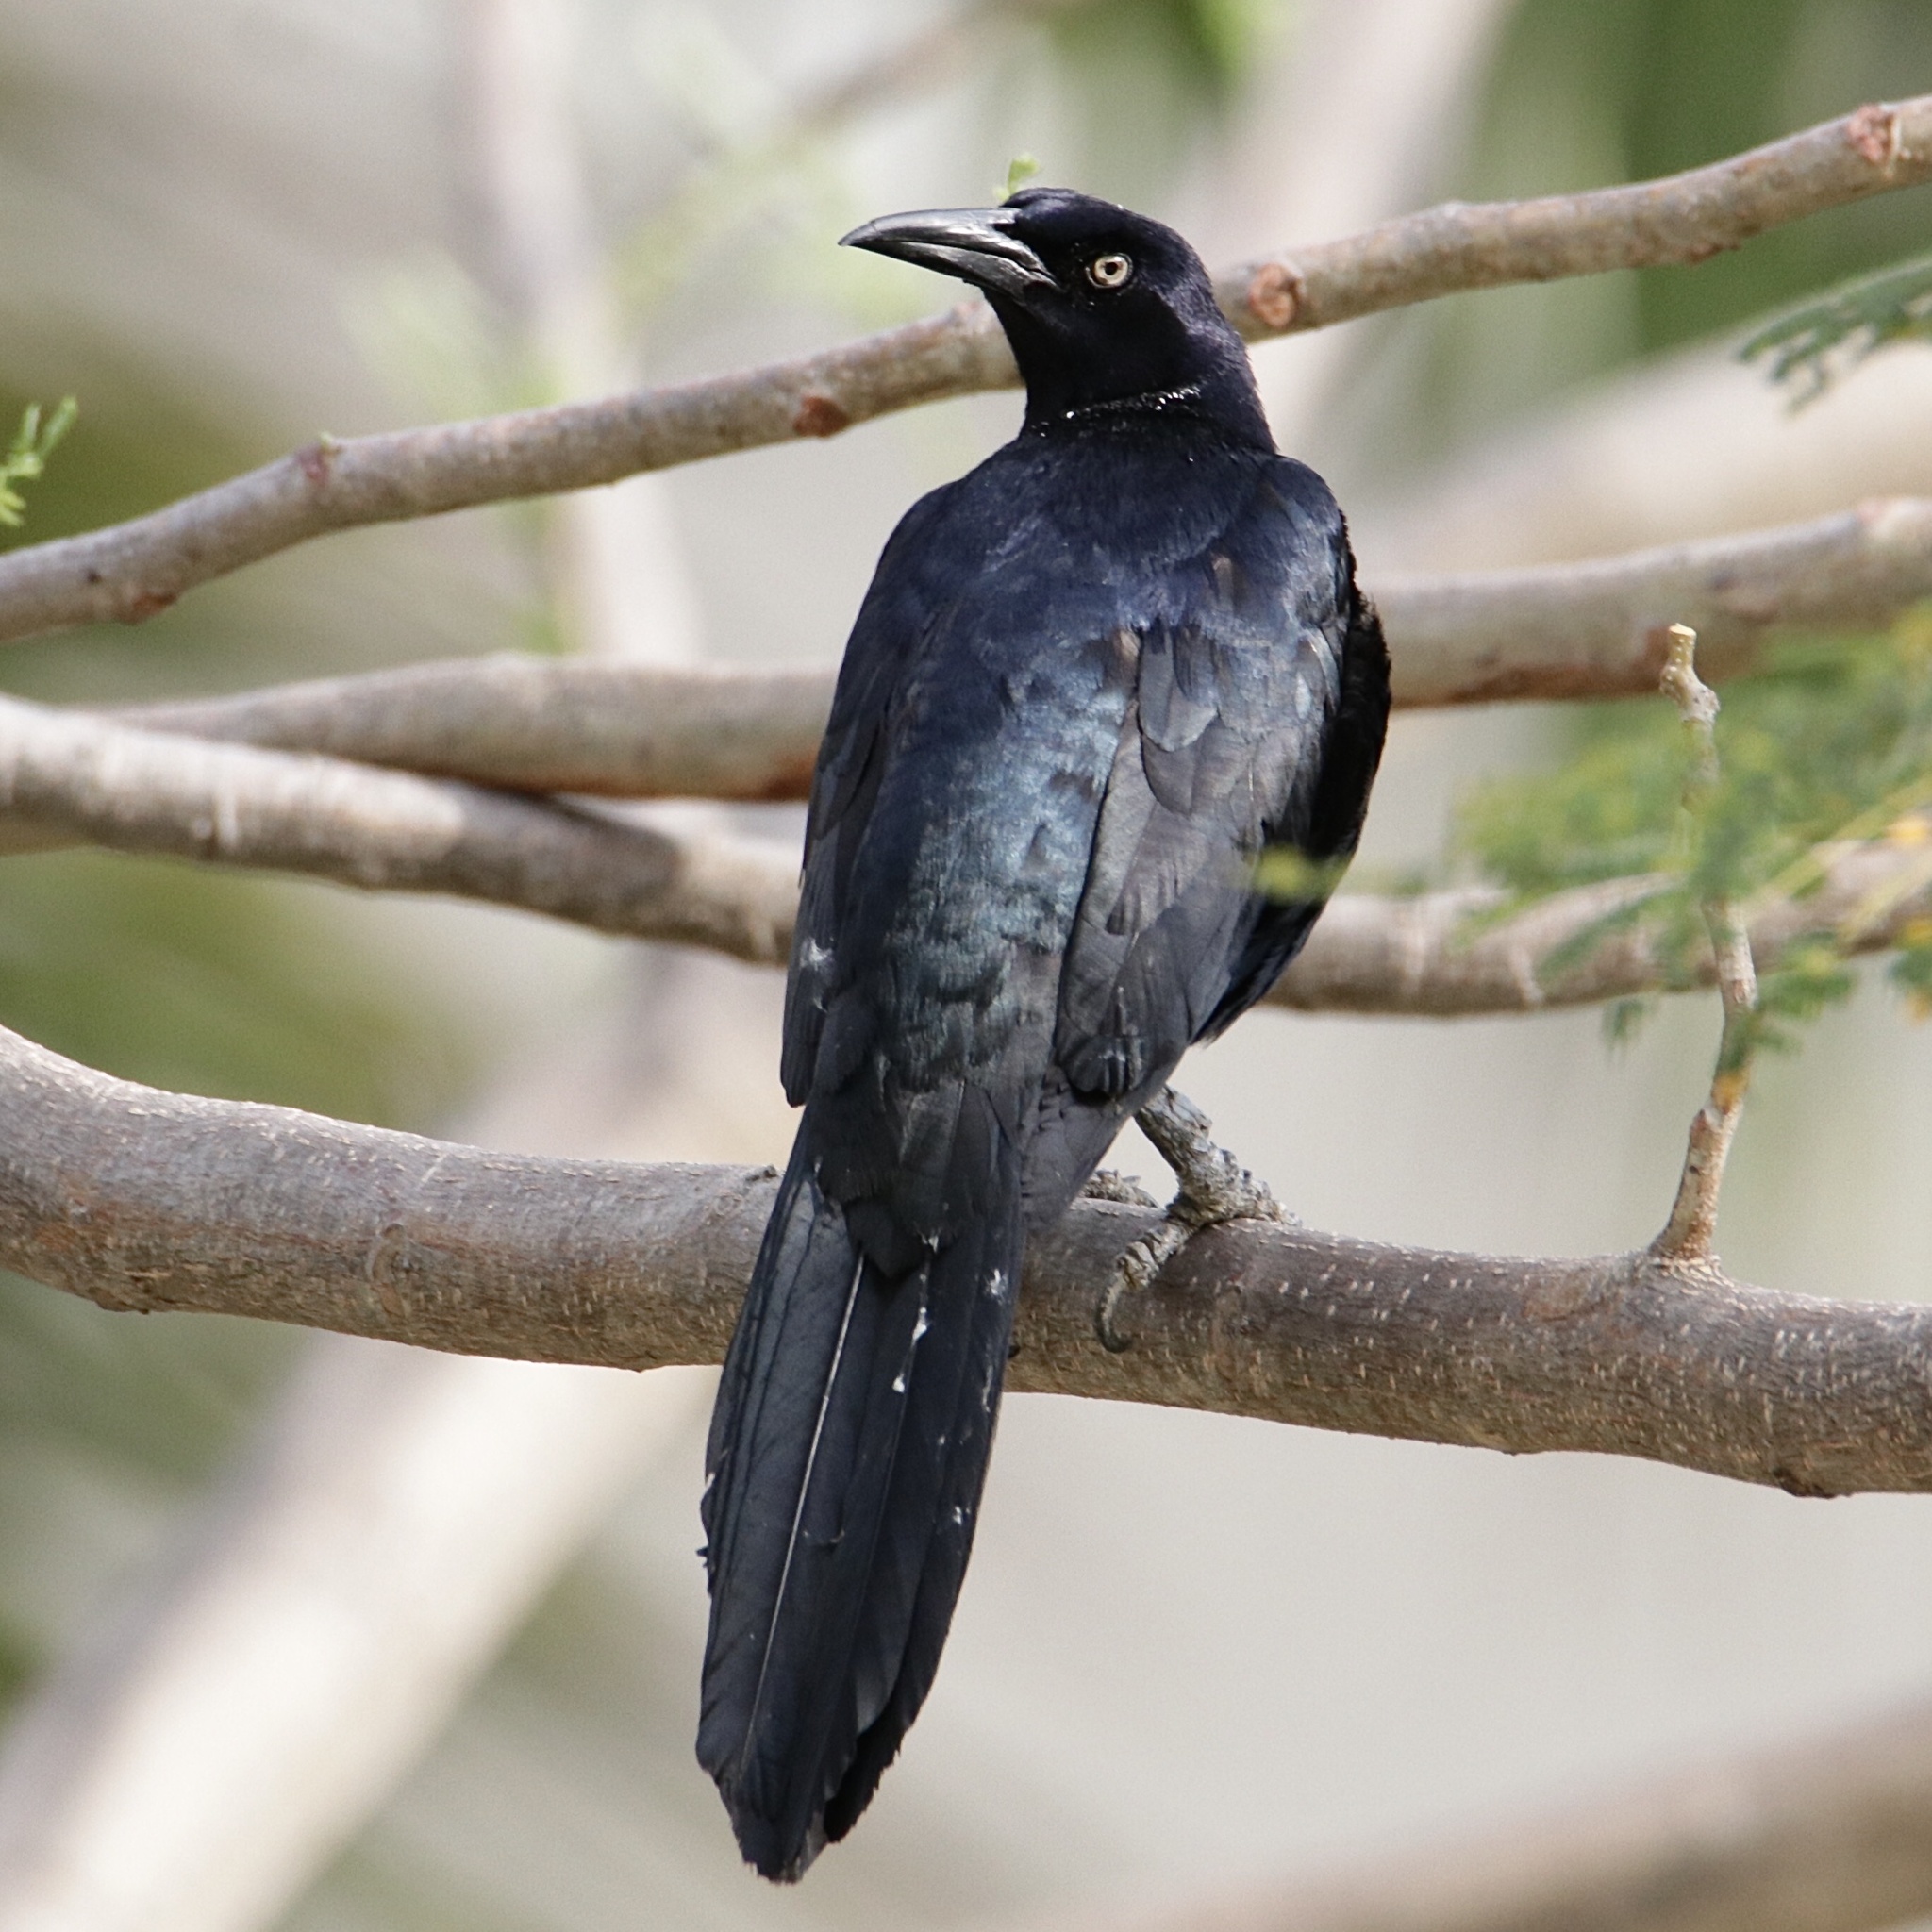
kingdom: Animalia
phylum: Chordata
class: Aves
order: Passeriformes
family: Icteridae
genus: Quiscalus
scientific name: Quiscalus mexicanus
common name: Great-tailed grackle
